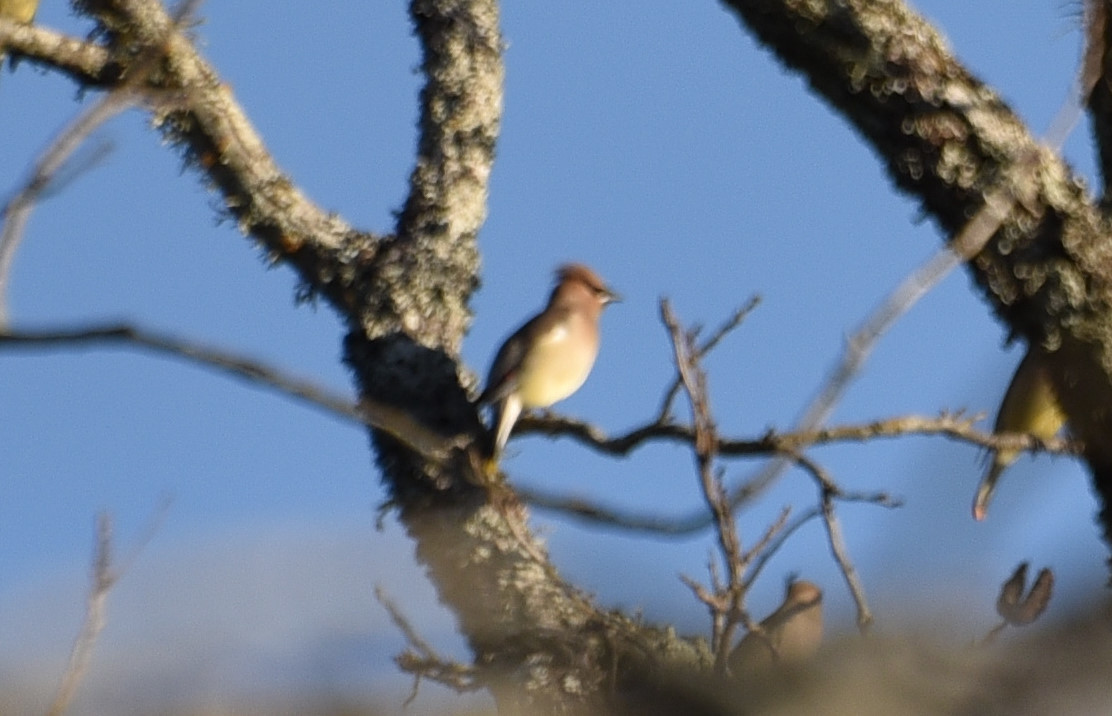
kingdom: Animalia
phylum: Chordata
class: Aves
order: Passeriformes
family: Bombycillidae
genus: Bombycilla
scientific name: Bombycilla cedrorum
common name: Cedar waxwing
